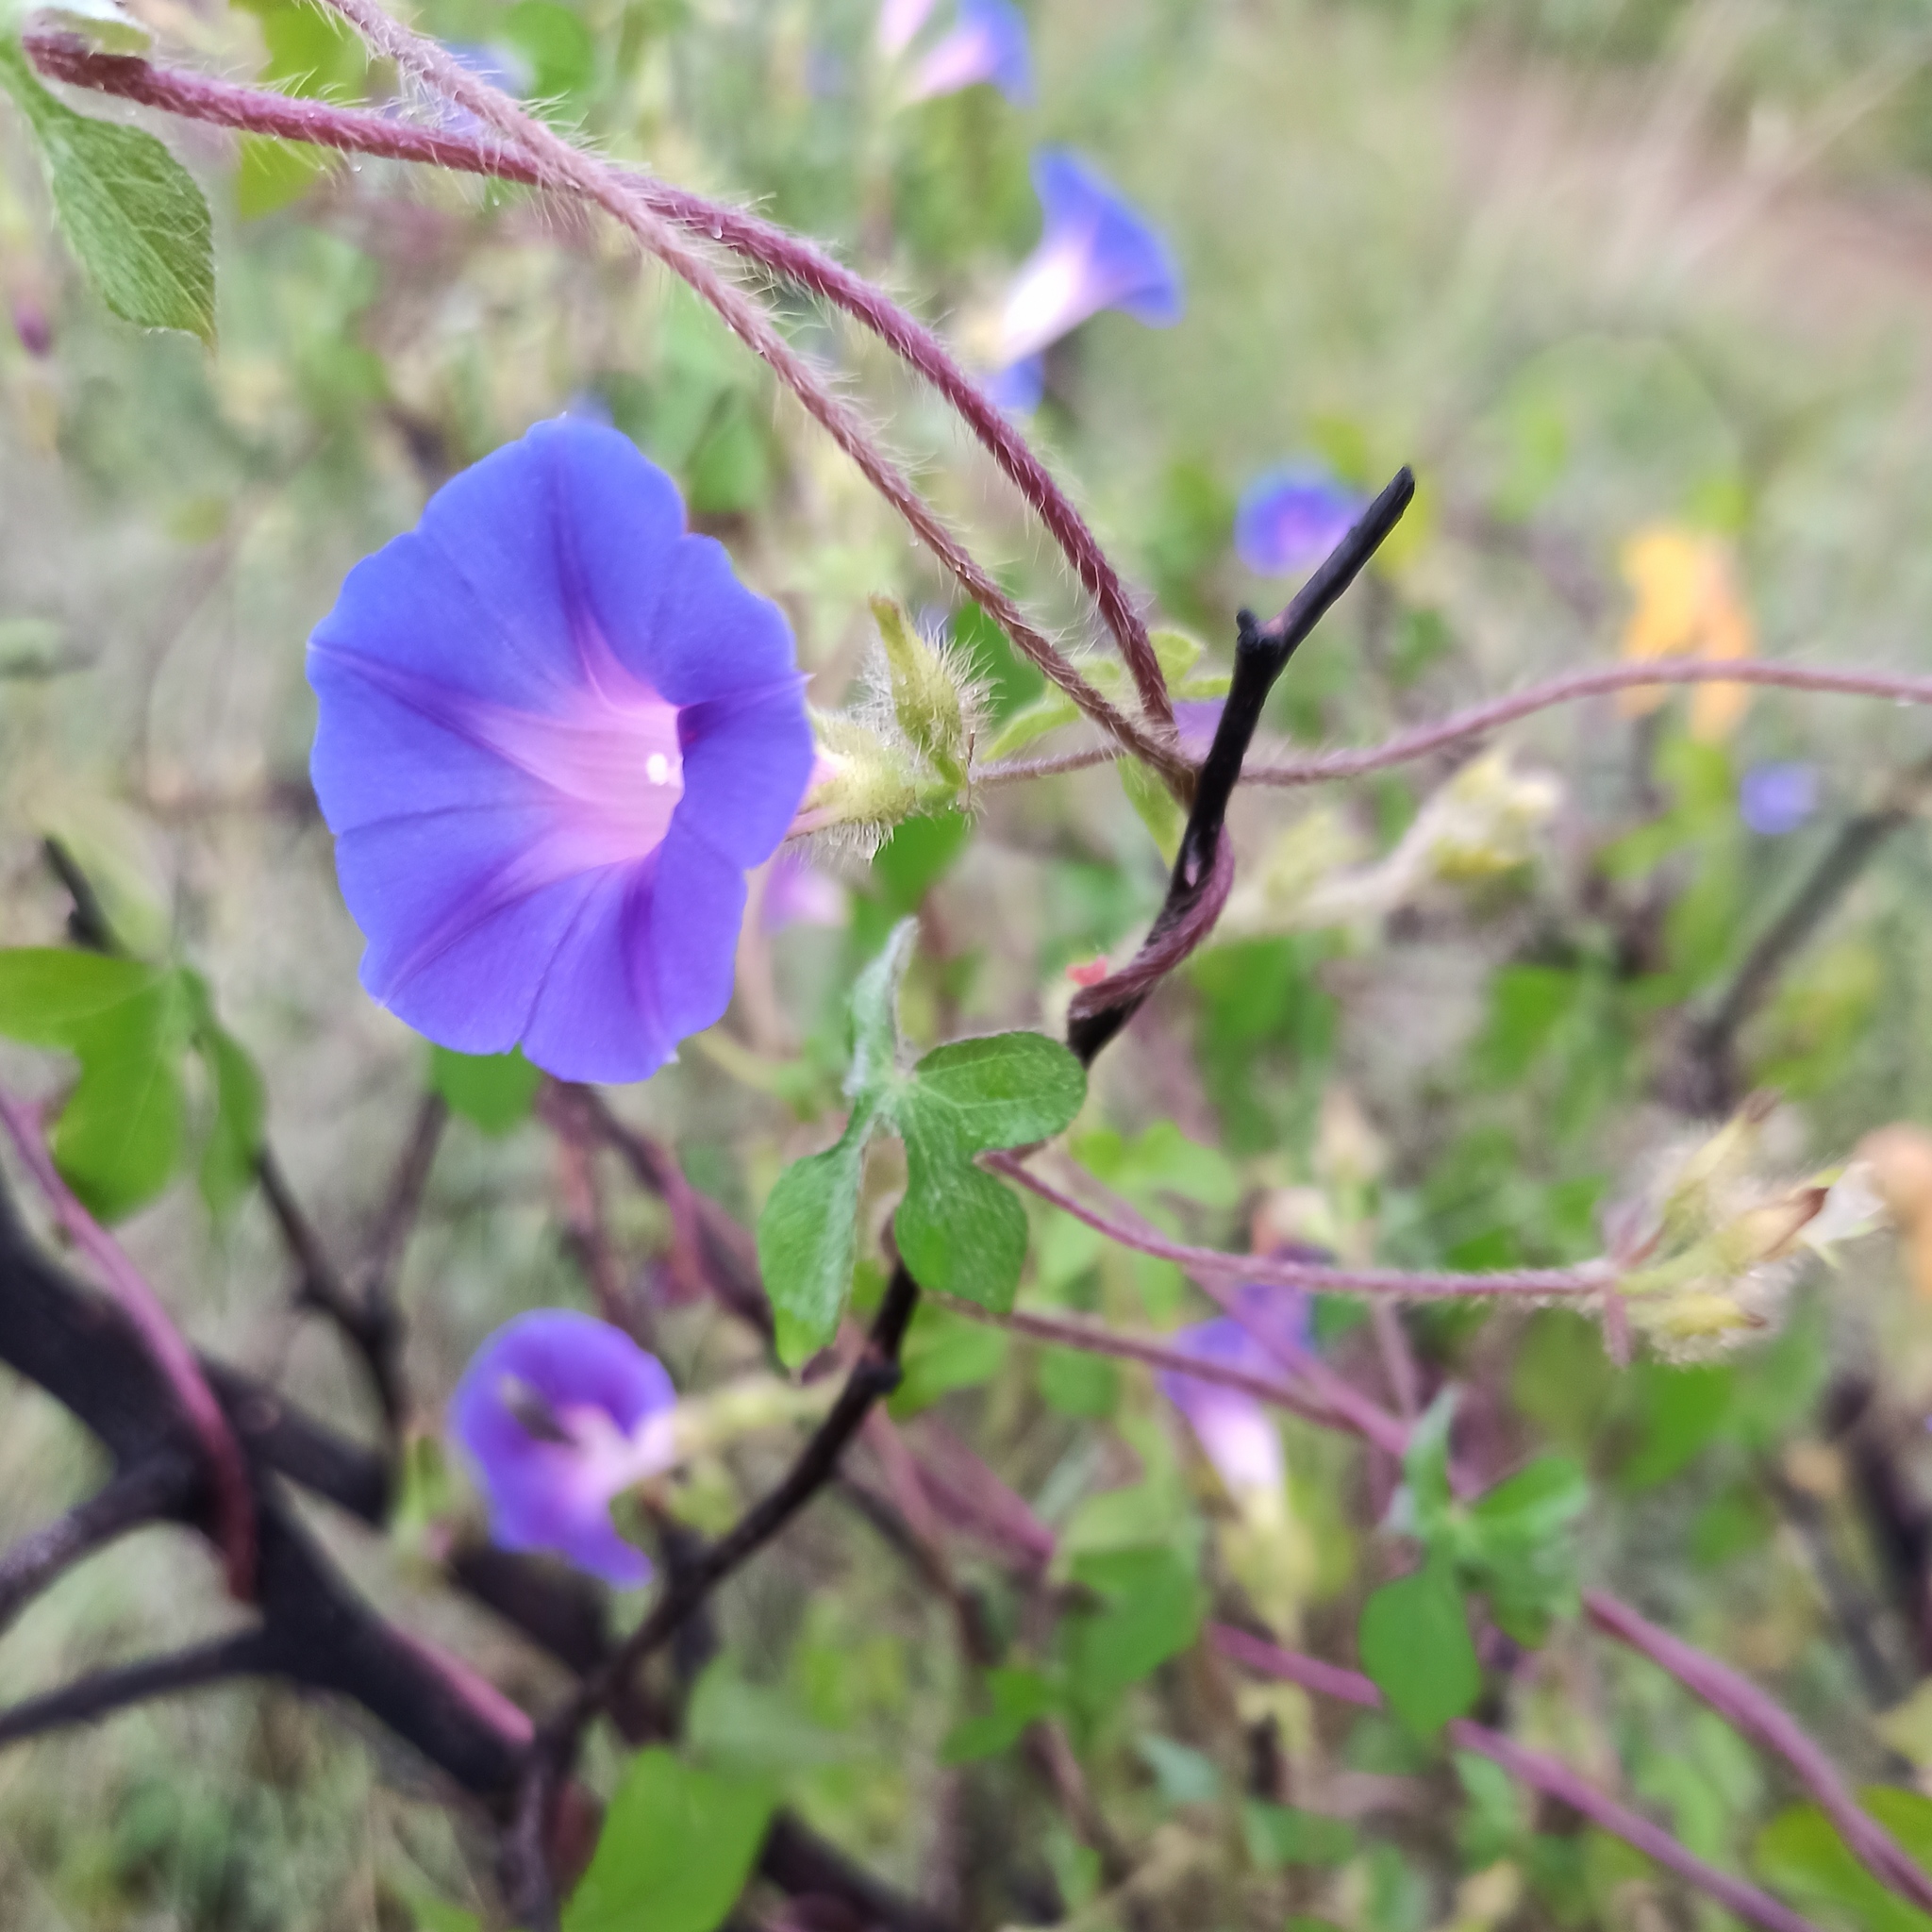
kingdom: Plantae
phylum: Tracheophyta
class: Magnoliopsida
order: Solanales
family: Convolvulaceae
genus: Ipomoea
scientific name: Ipomoea purpurea
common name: Common morning-glory
